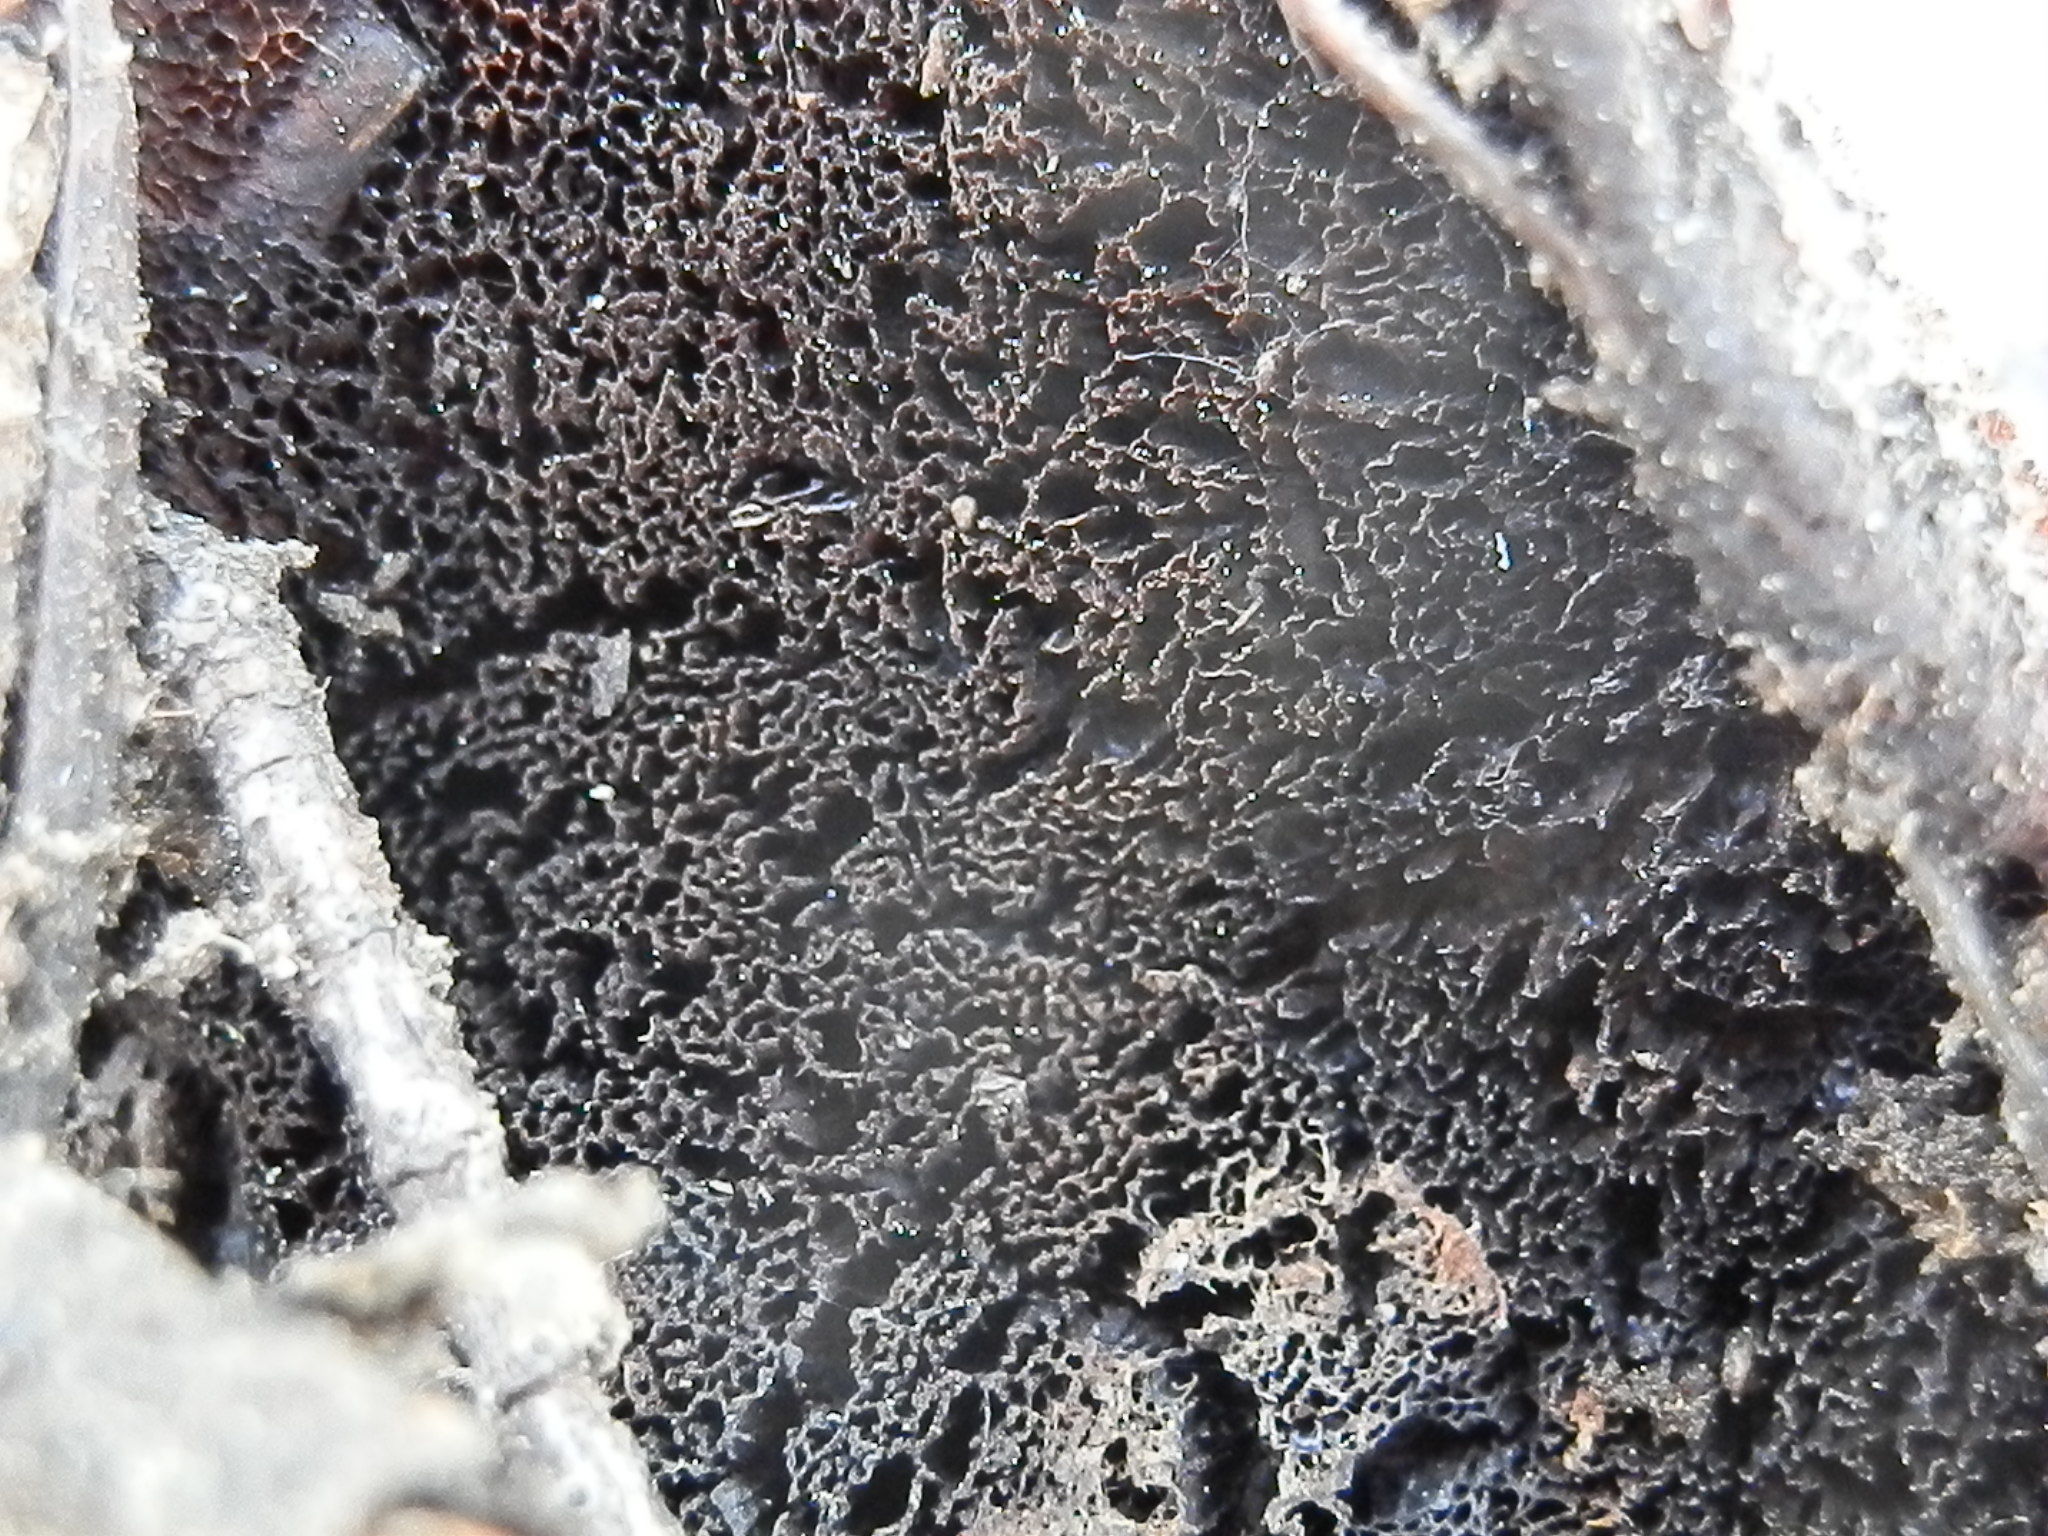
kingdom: Fungi
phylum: Basidiomycota
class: Agaricomycetes
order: Polyporales
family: Laetiporaceae
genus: Phaeolus
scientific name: Phaeolus schweinitzii
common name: Dyer's mazegill
